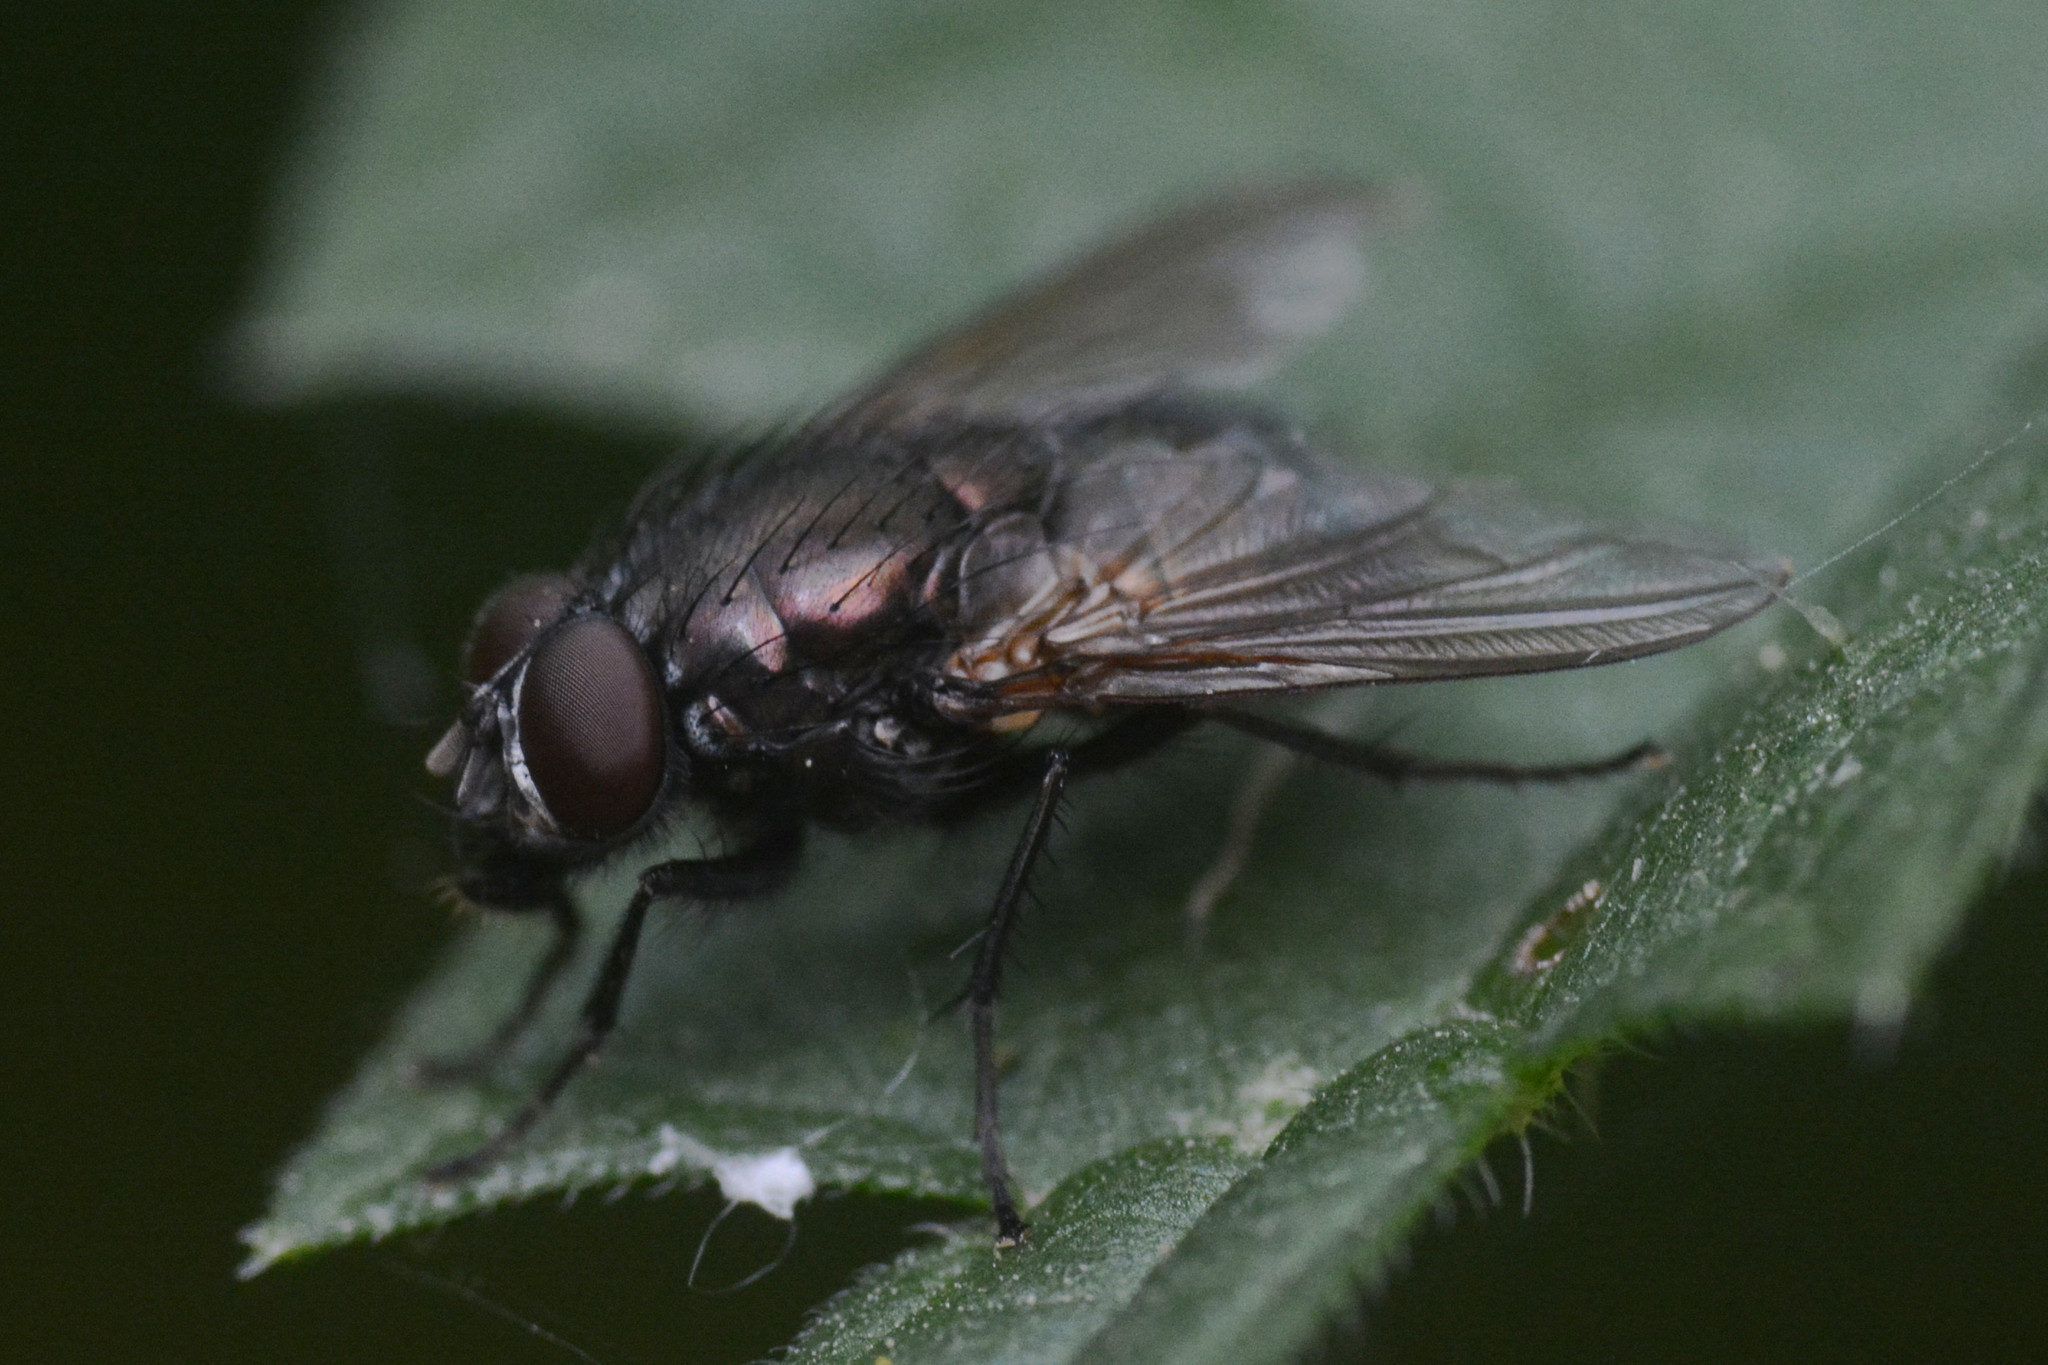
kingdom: Animalia
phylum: Arthropoda
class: Insecta
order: Diptera
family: Muscidae
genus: Dasyphora
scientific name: Dasyphora cyanella
